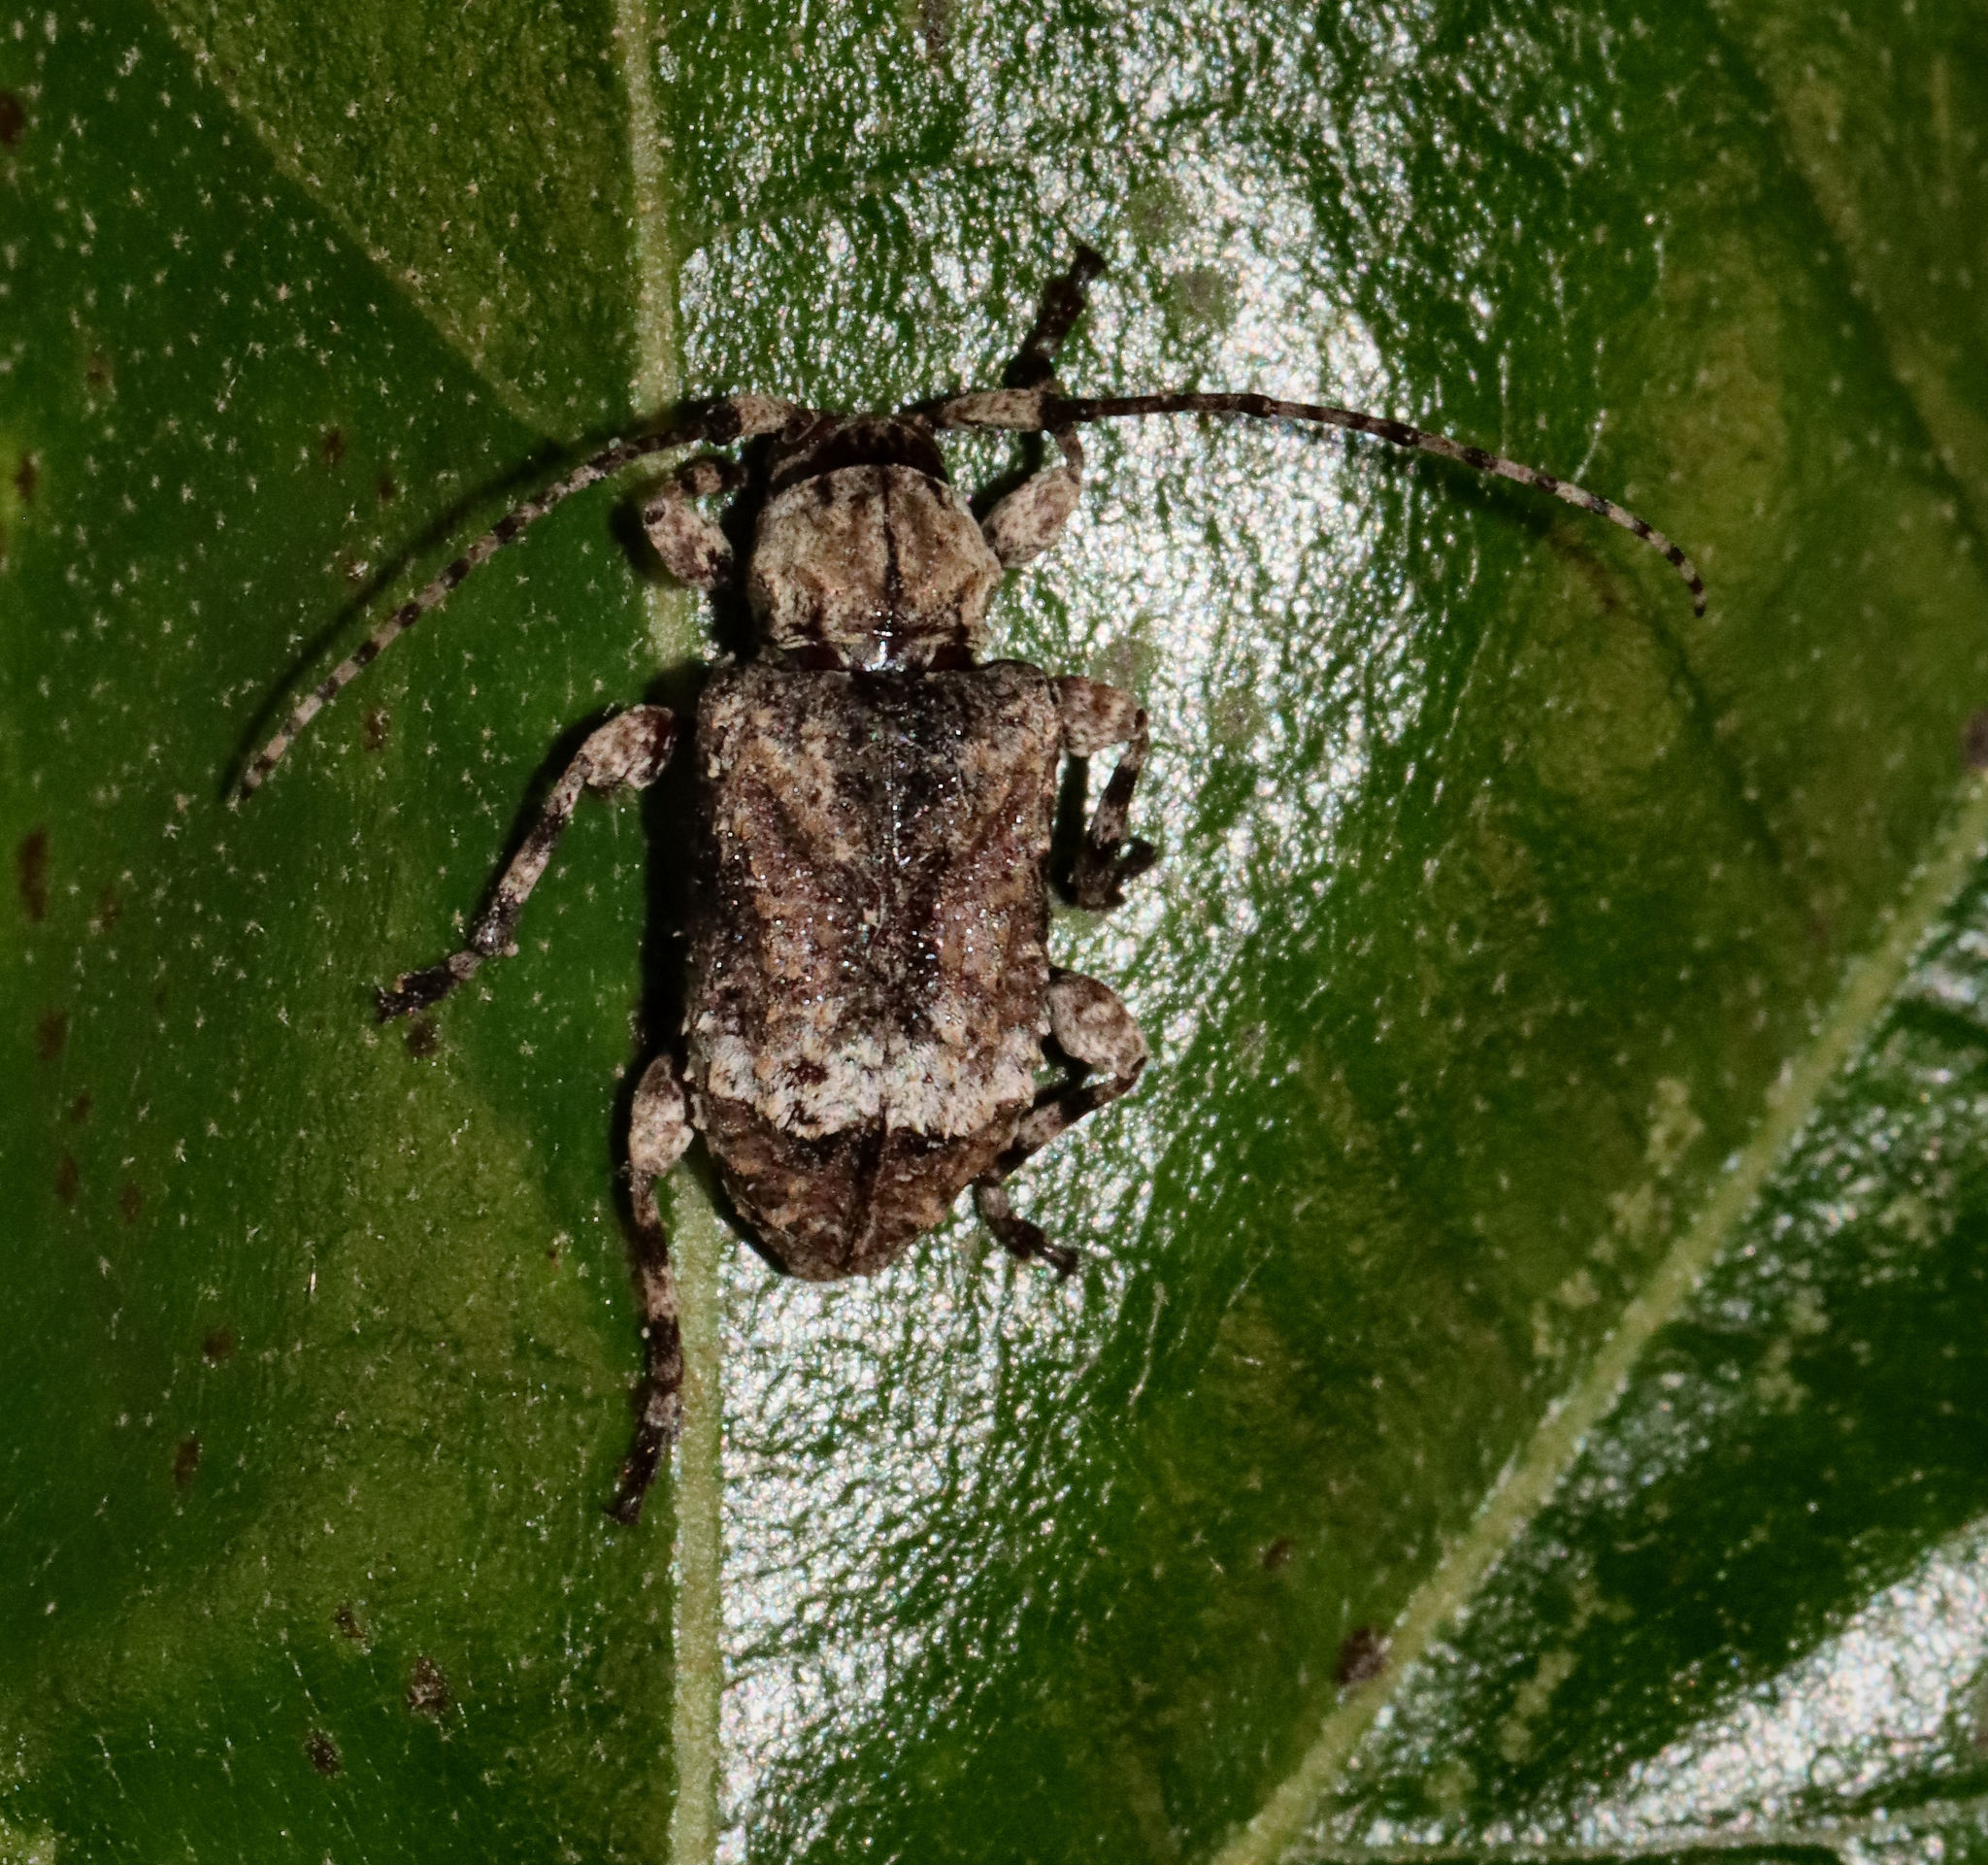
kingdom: Animalia
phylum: Arthropoda
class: Insecta
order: Coleoptera
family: Cerambycidae
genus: Leptostylus
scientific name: Leptostylus transversus
